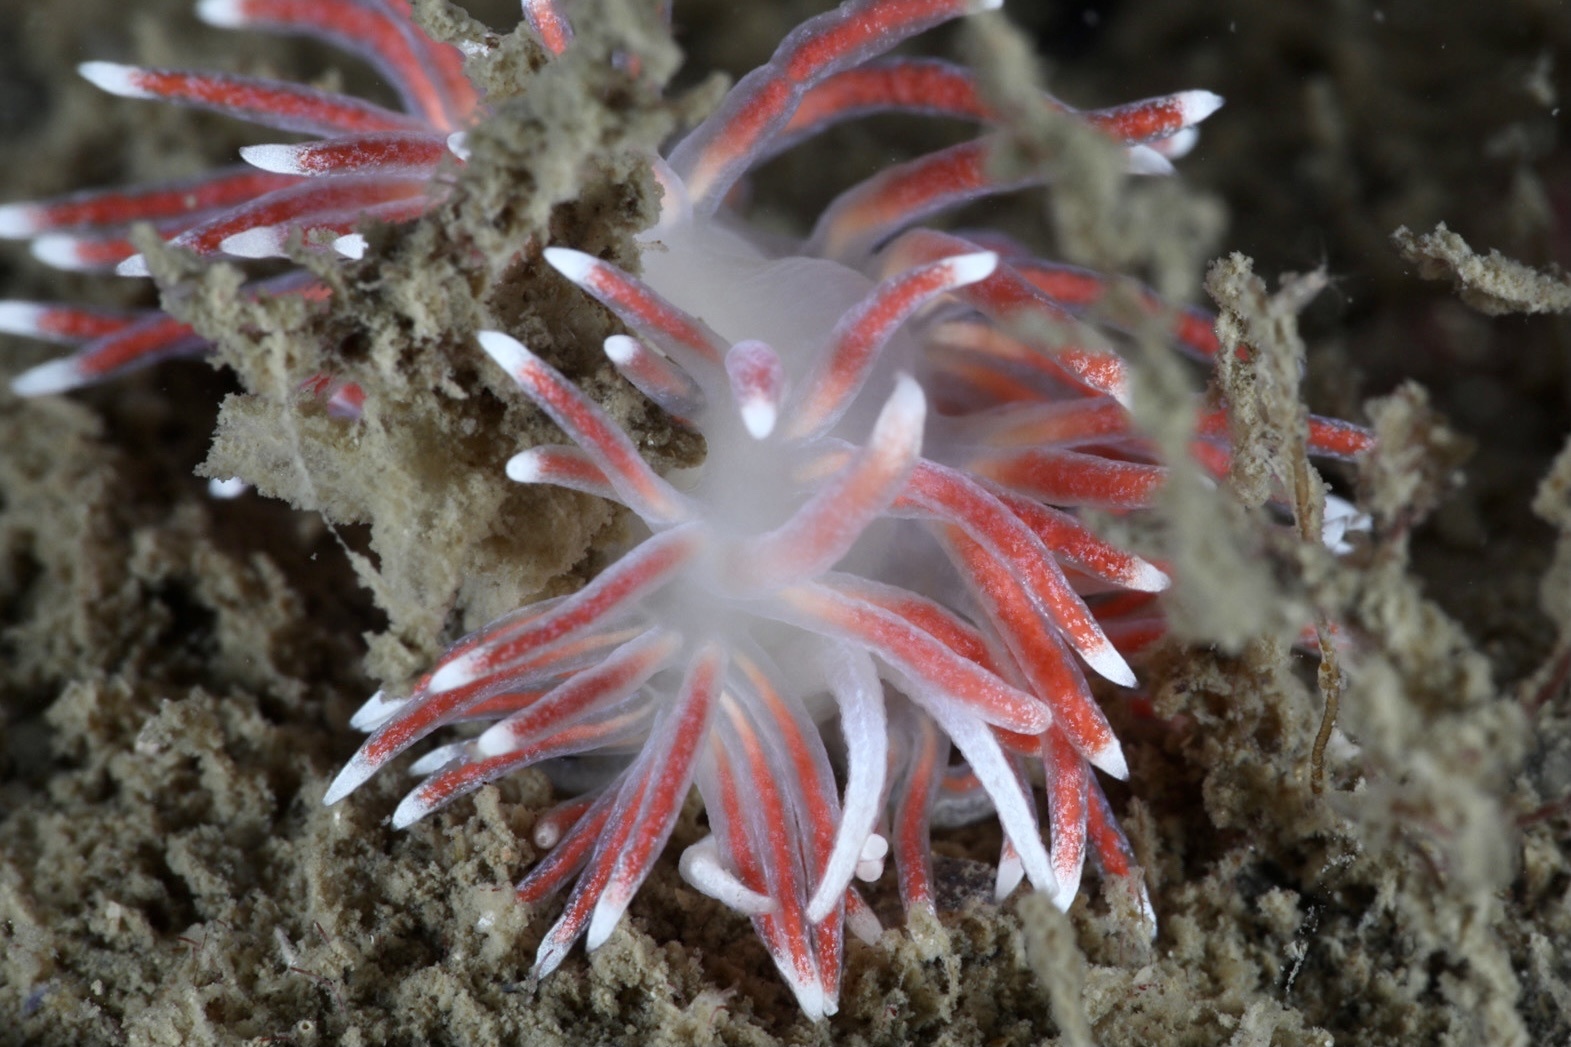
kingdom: Animalia
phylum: Mollusca
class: Gastropoda
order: Nudibranchia
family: Flabellinidae
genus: Carronella
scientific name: Carronella pellucida
